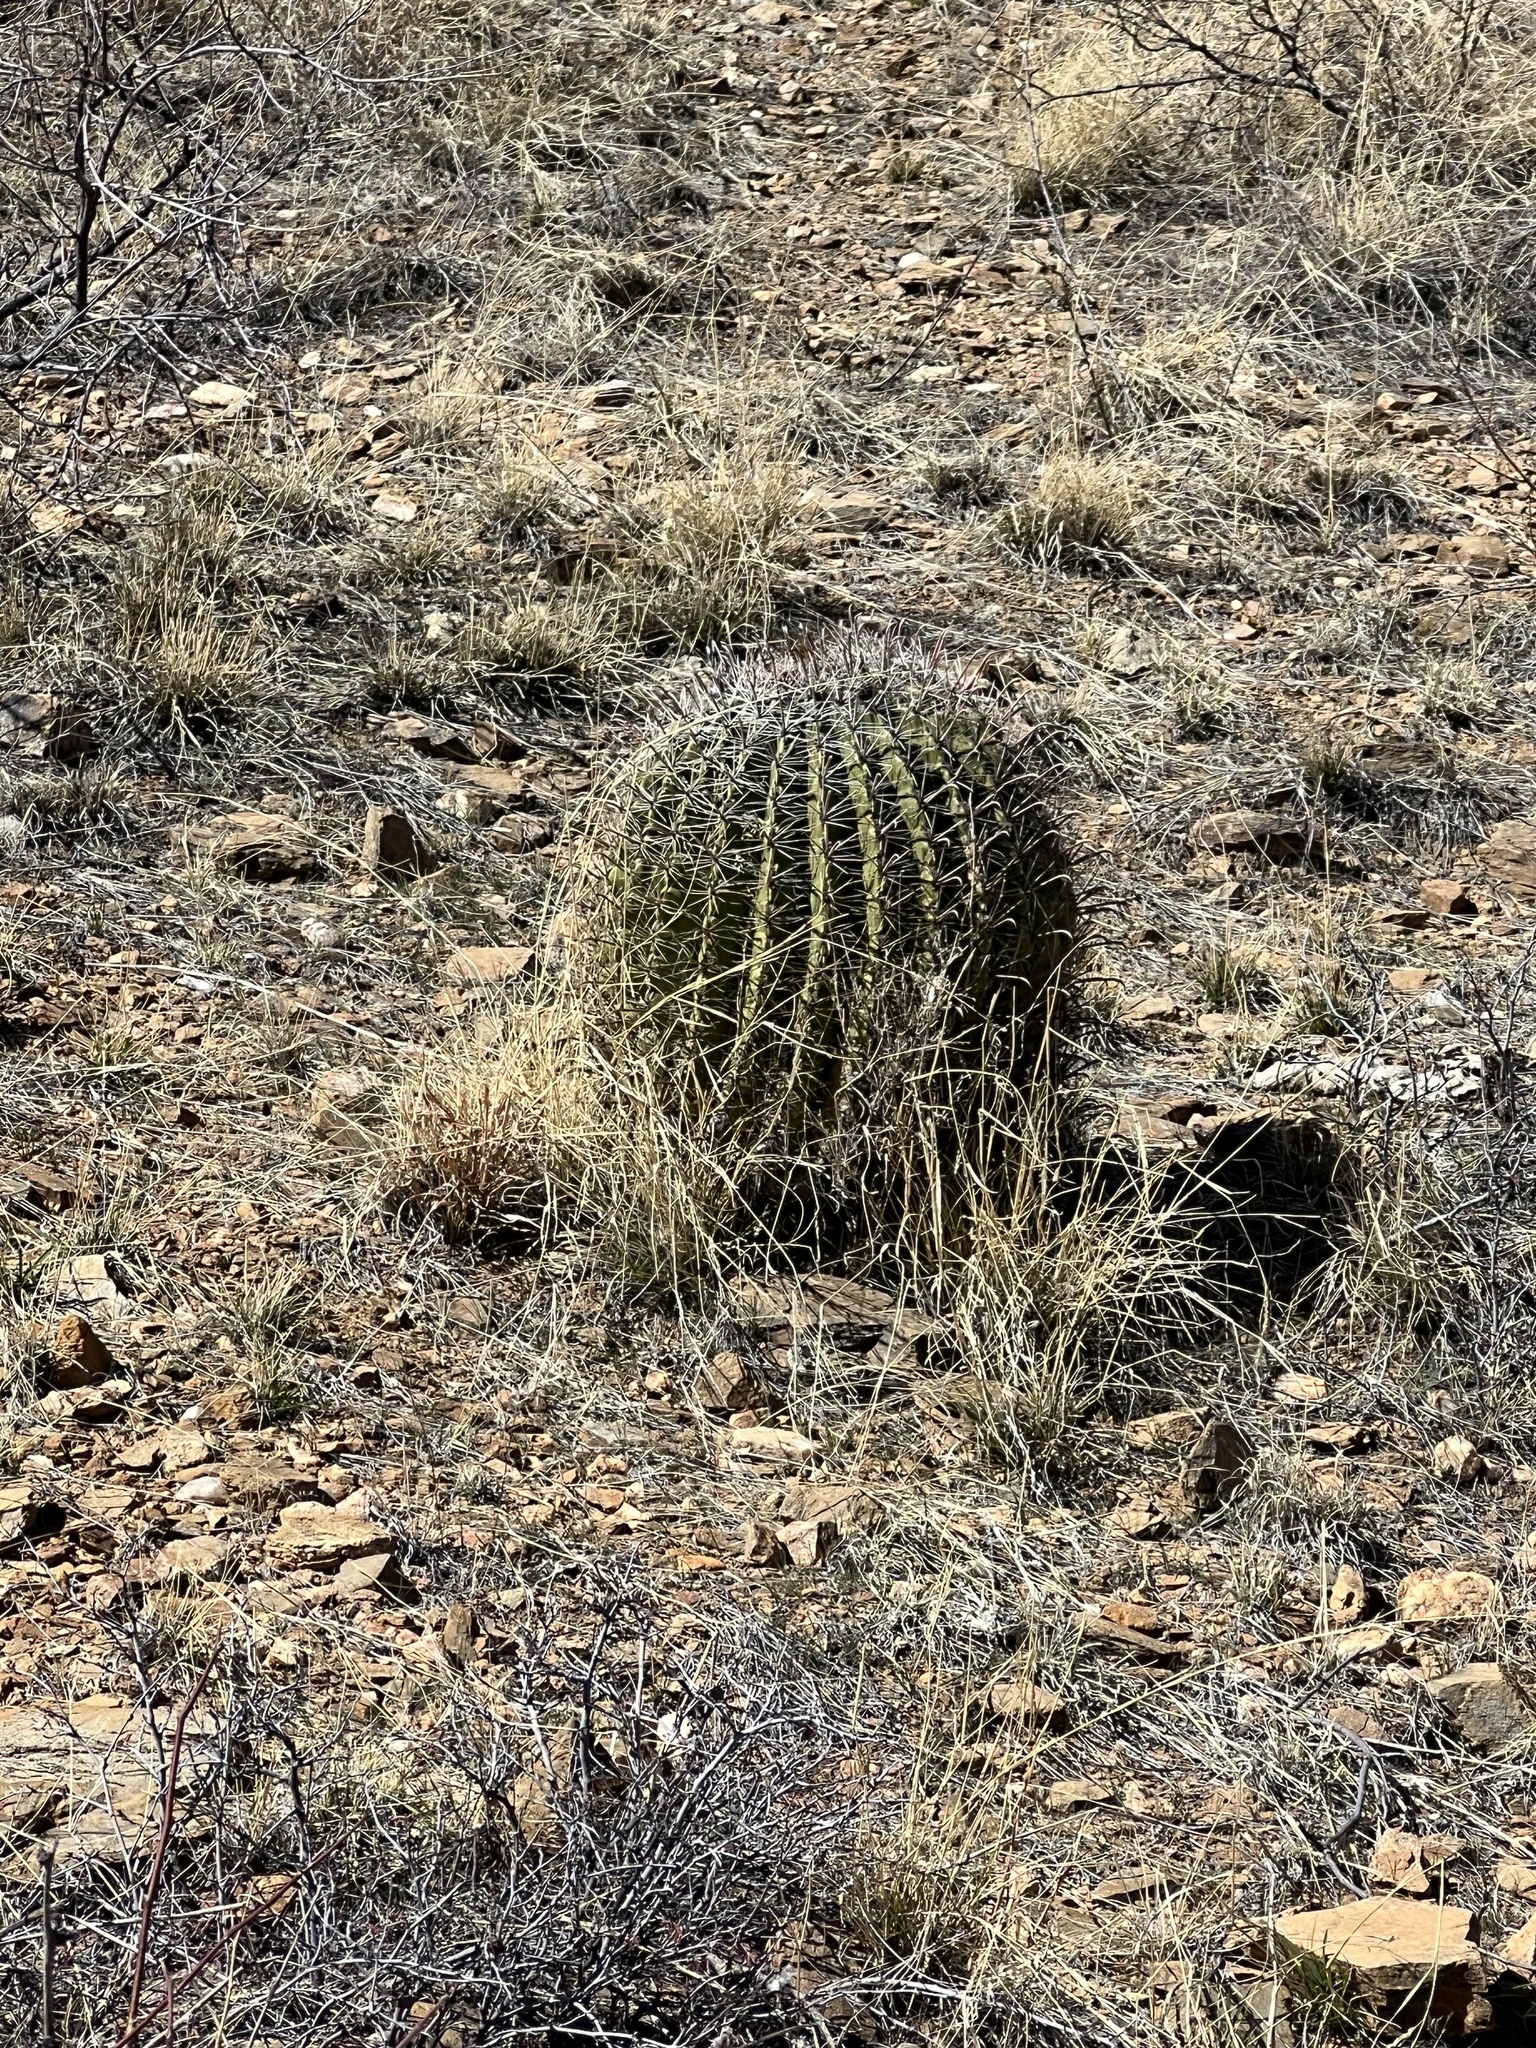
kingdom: Plantae
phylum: Tracheophyta
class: Magnoliopsida
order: Caryophyllales
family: Cactaceae
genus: Ferocactus
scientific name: Ferocactus wislizeni
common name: Candy barrel cactus
